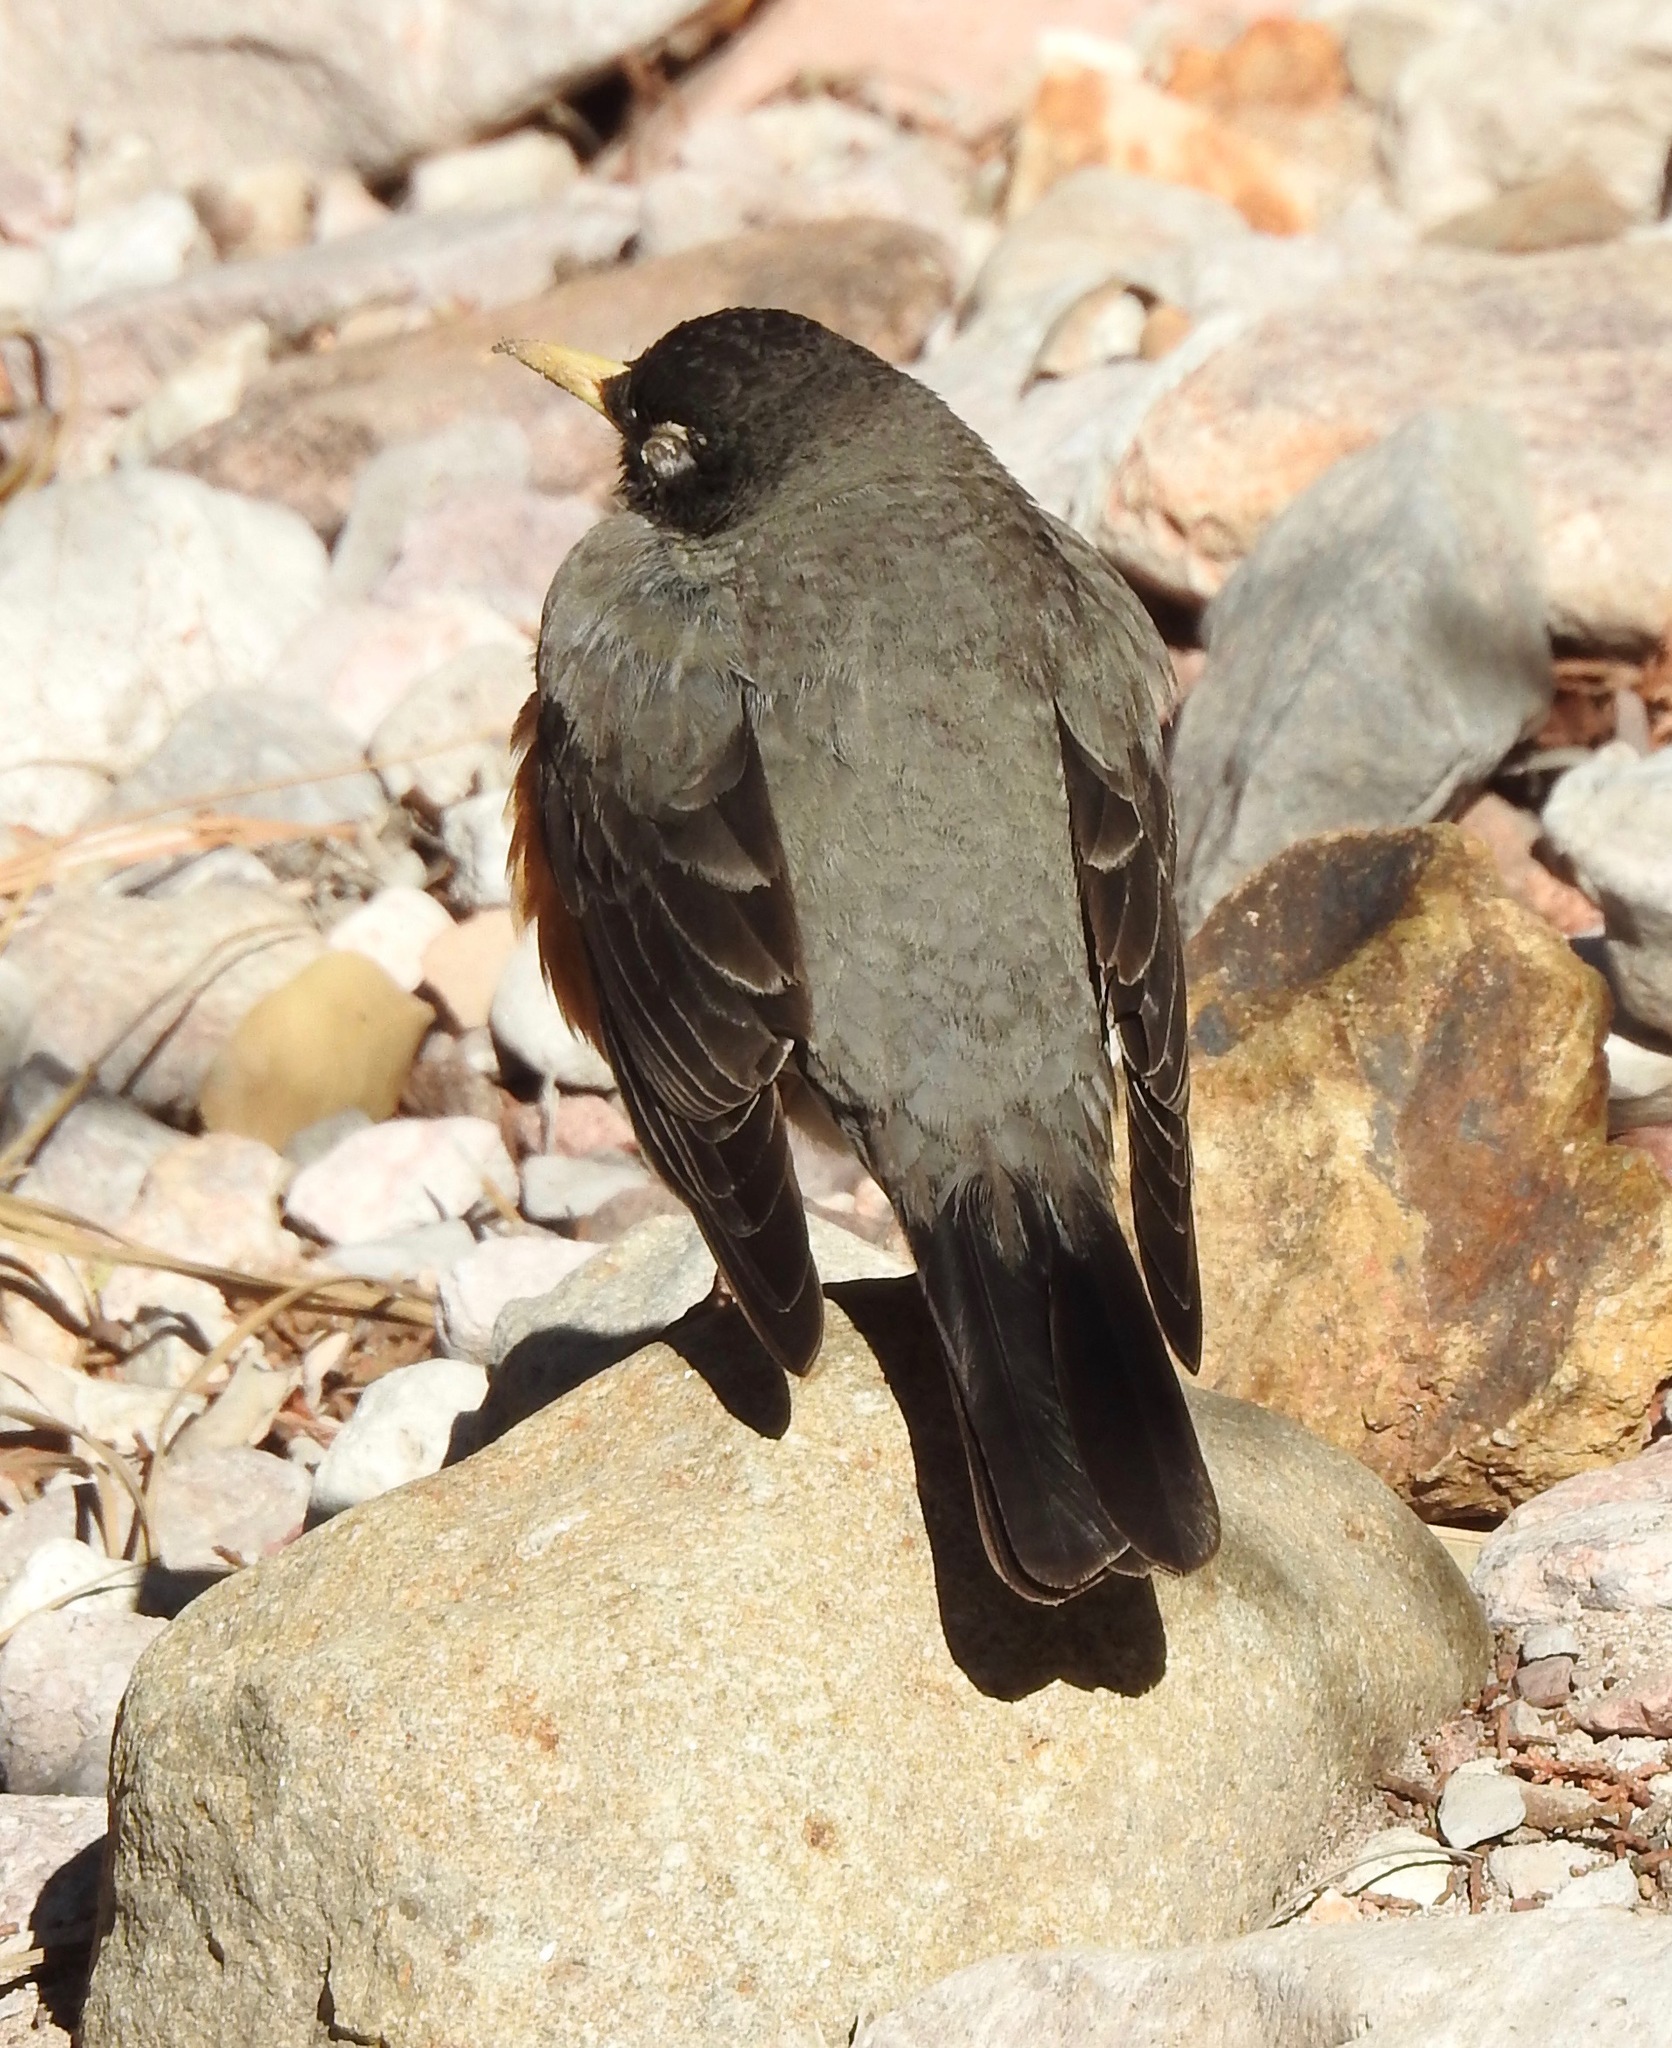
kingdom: Animalia
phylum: Chordata
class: Aves
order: Passeriformes
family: Turdidae
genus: Turdus
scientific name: Turdus migratorius
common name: American robin
